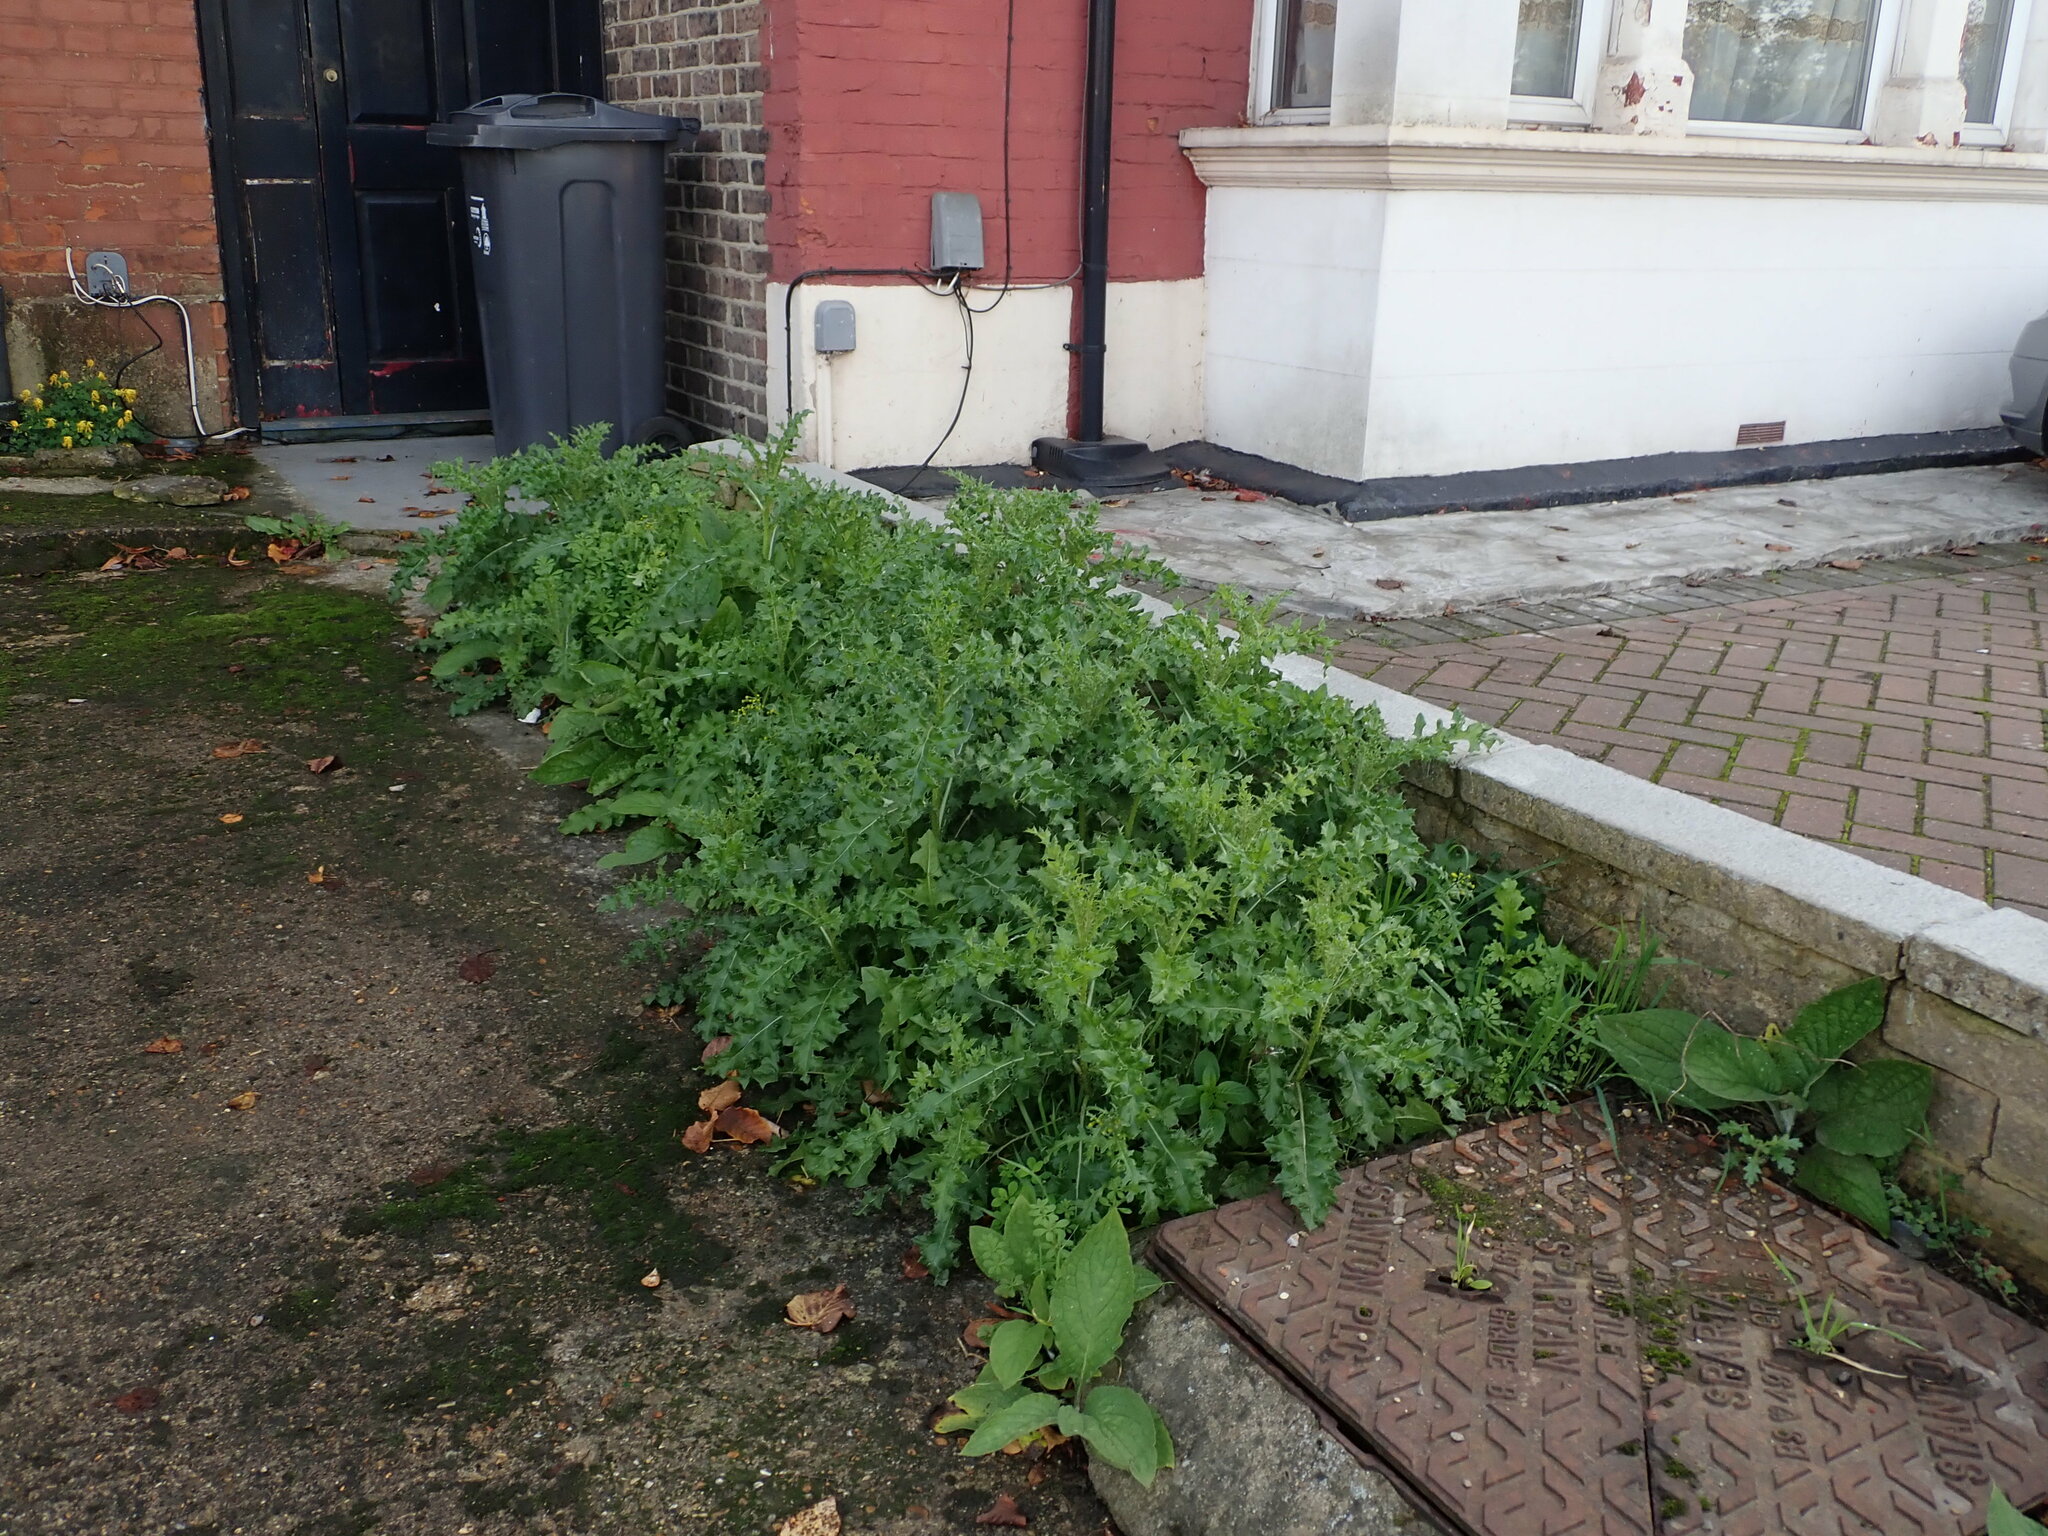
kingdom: Plantae
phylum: Tracheophyta
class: Magnoliopsida
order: Asterales
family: Asteraceae
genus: Cirsium
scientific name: Cirsium arvense
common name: Creeping thistle
